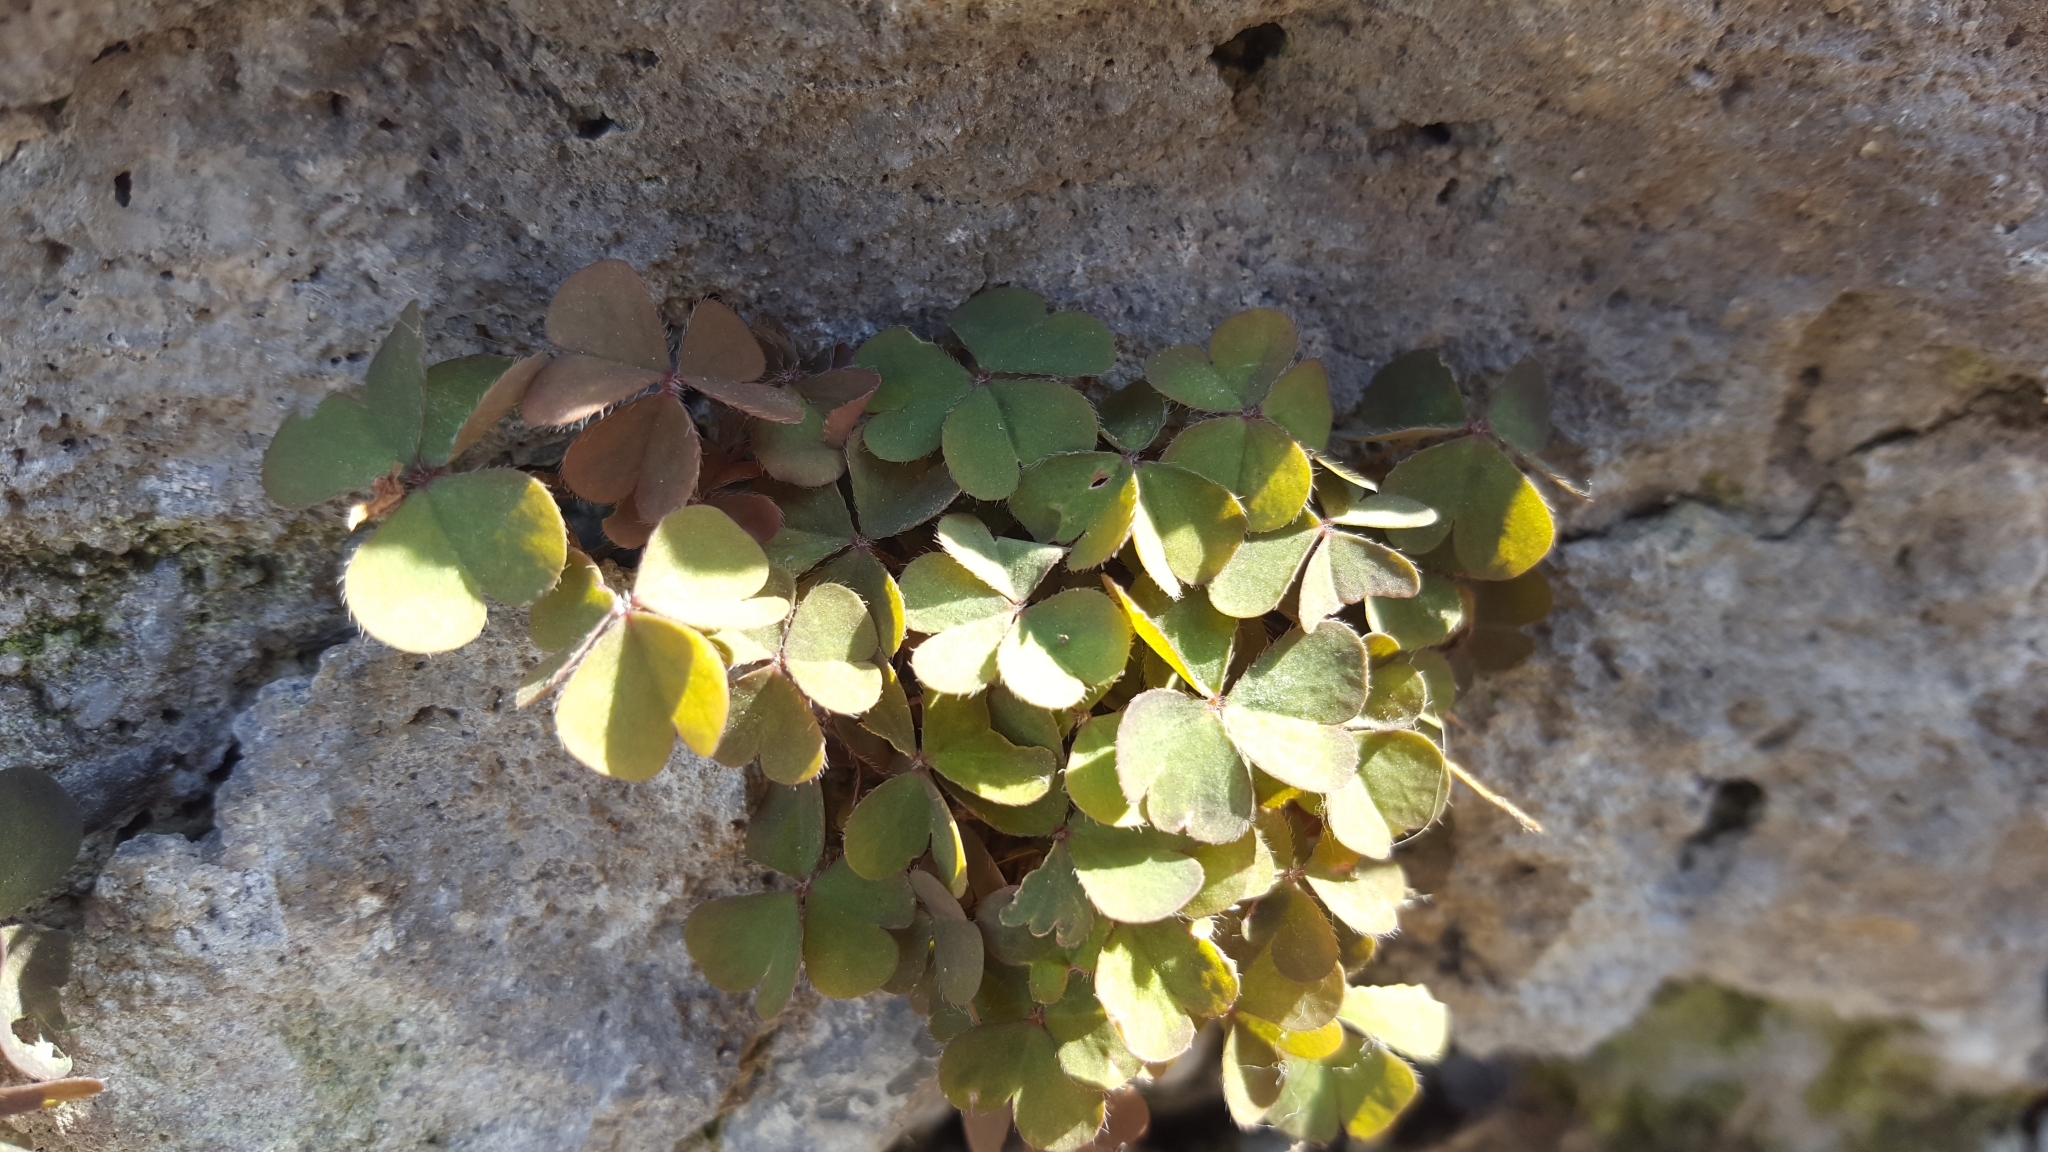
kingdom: Plantae
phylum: Tracheophyta
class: Magnoliopsida
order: Oxalidales
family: Oxalidaceae
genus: Oxalis
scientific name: Oxalis corniculata
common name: Procumbent yellow-sorrel
